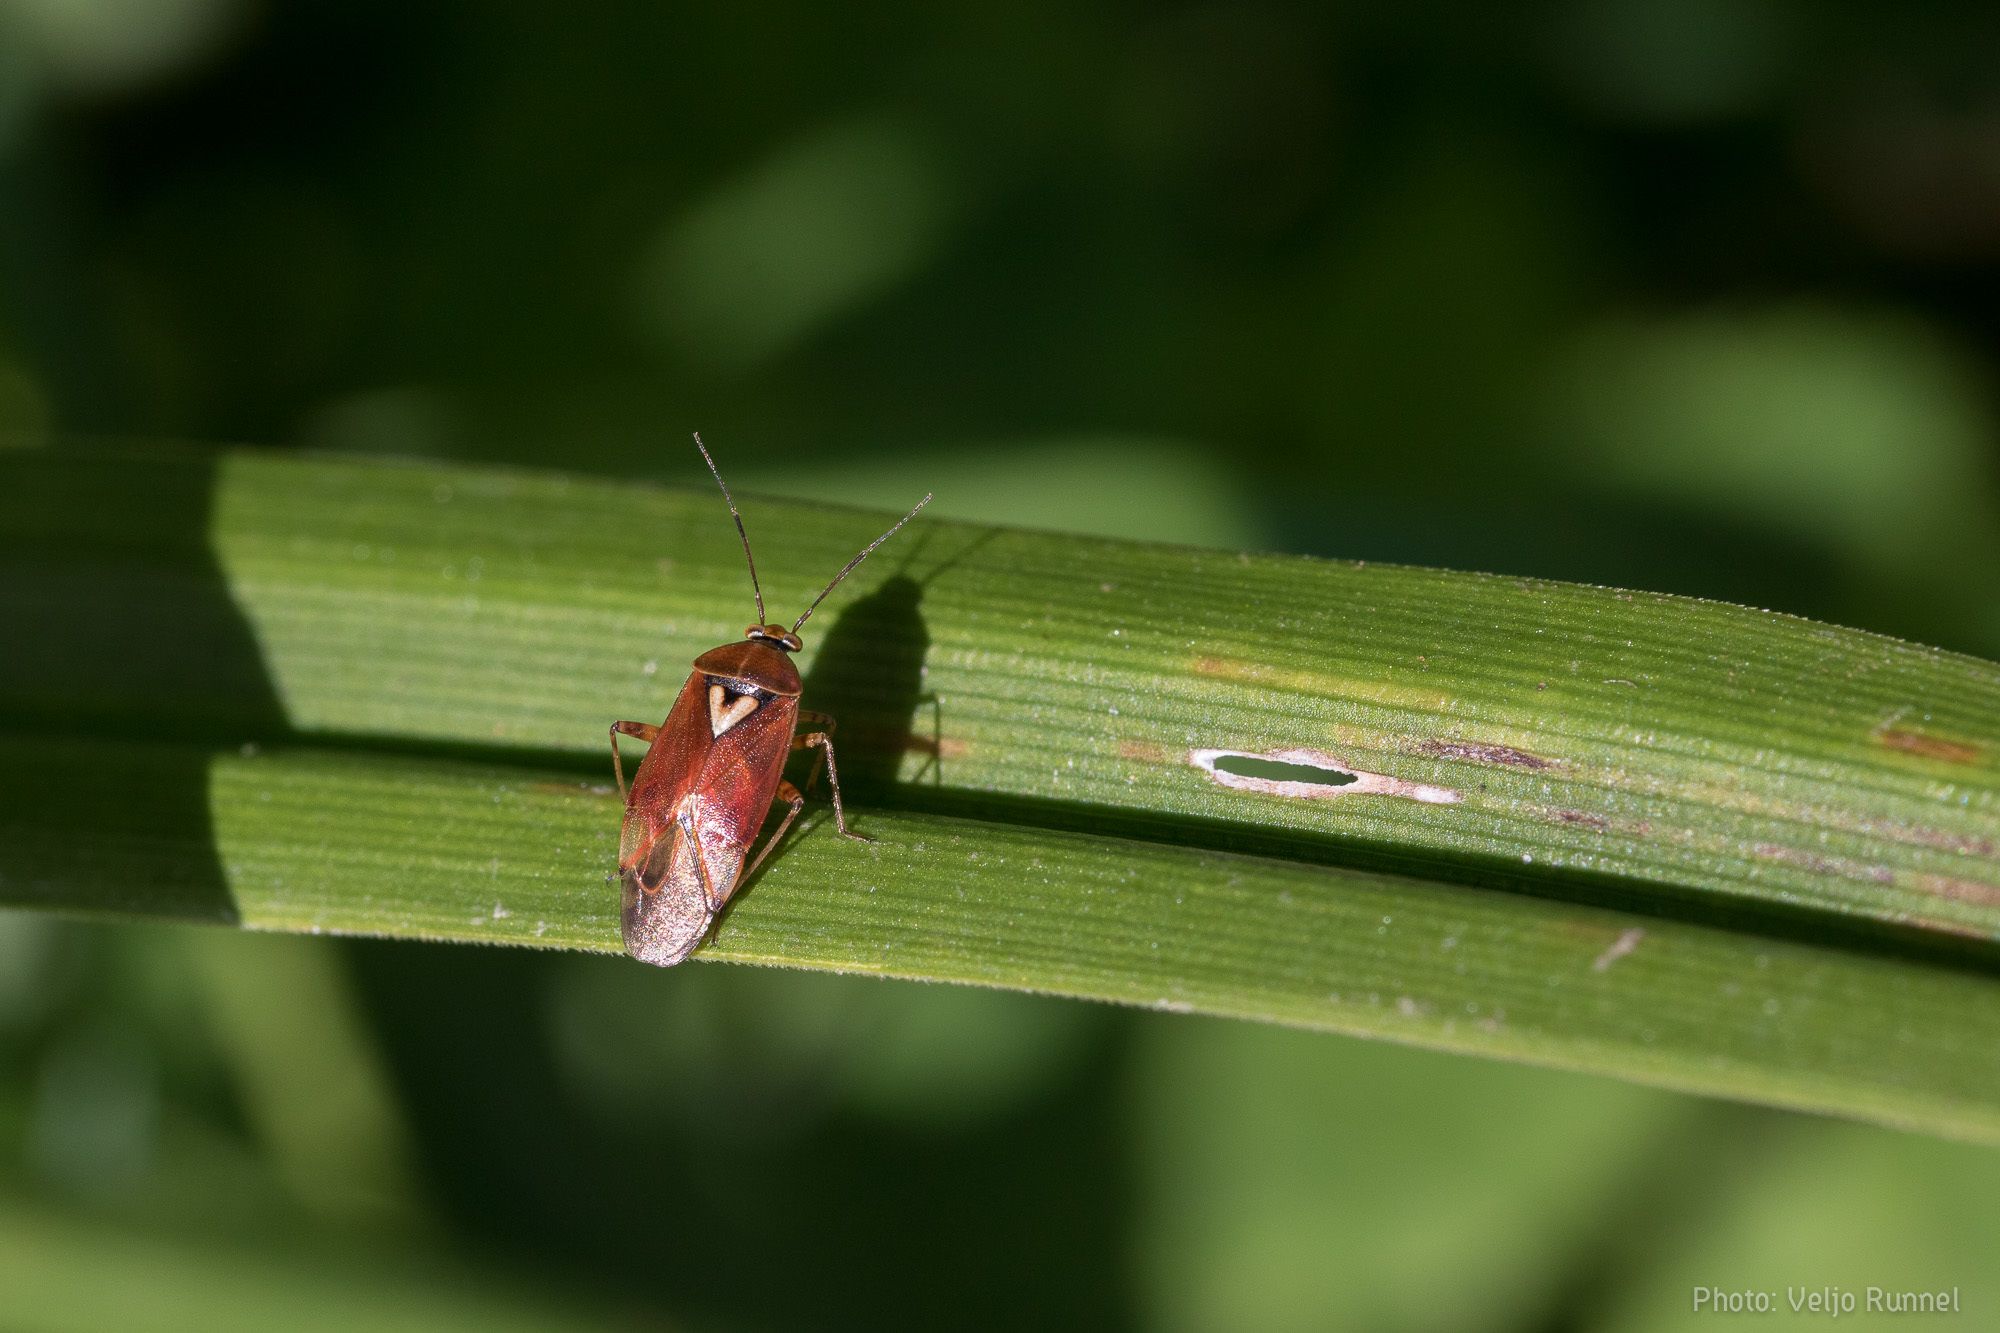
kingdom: Animalia
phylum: Arthropoda
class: Insecta
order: Hemiptera
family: Miridae
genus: Lygus
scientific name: Lygus pratensis
